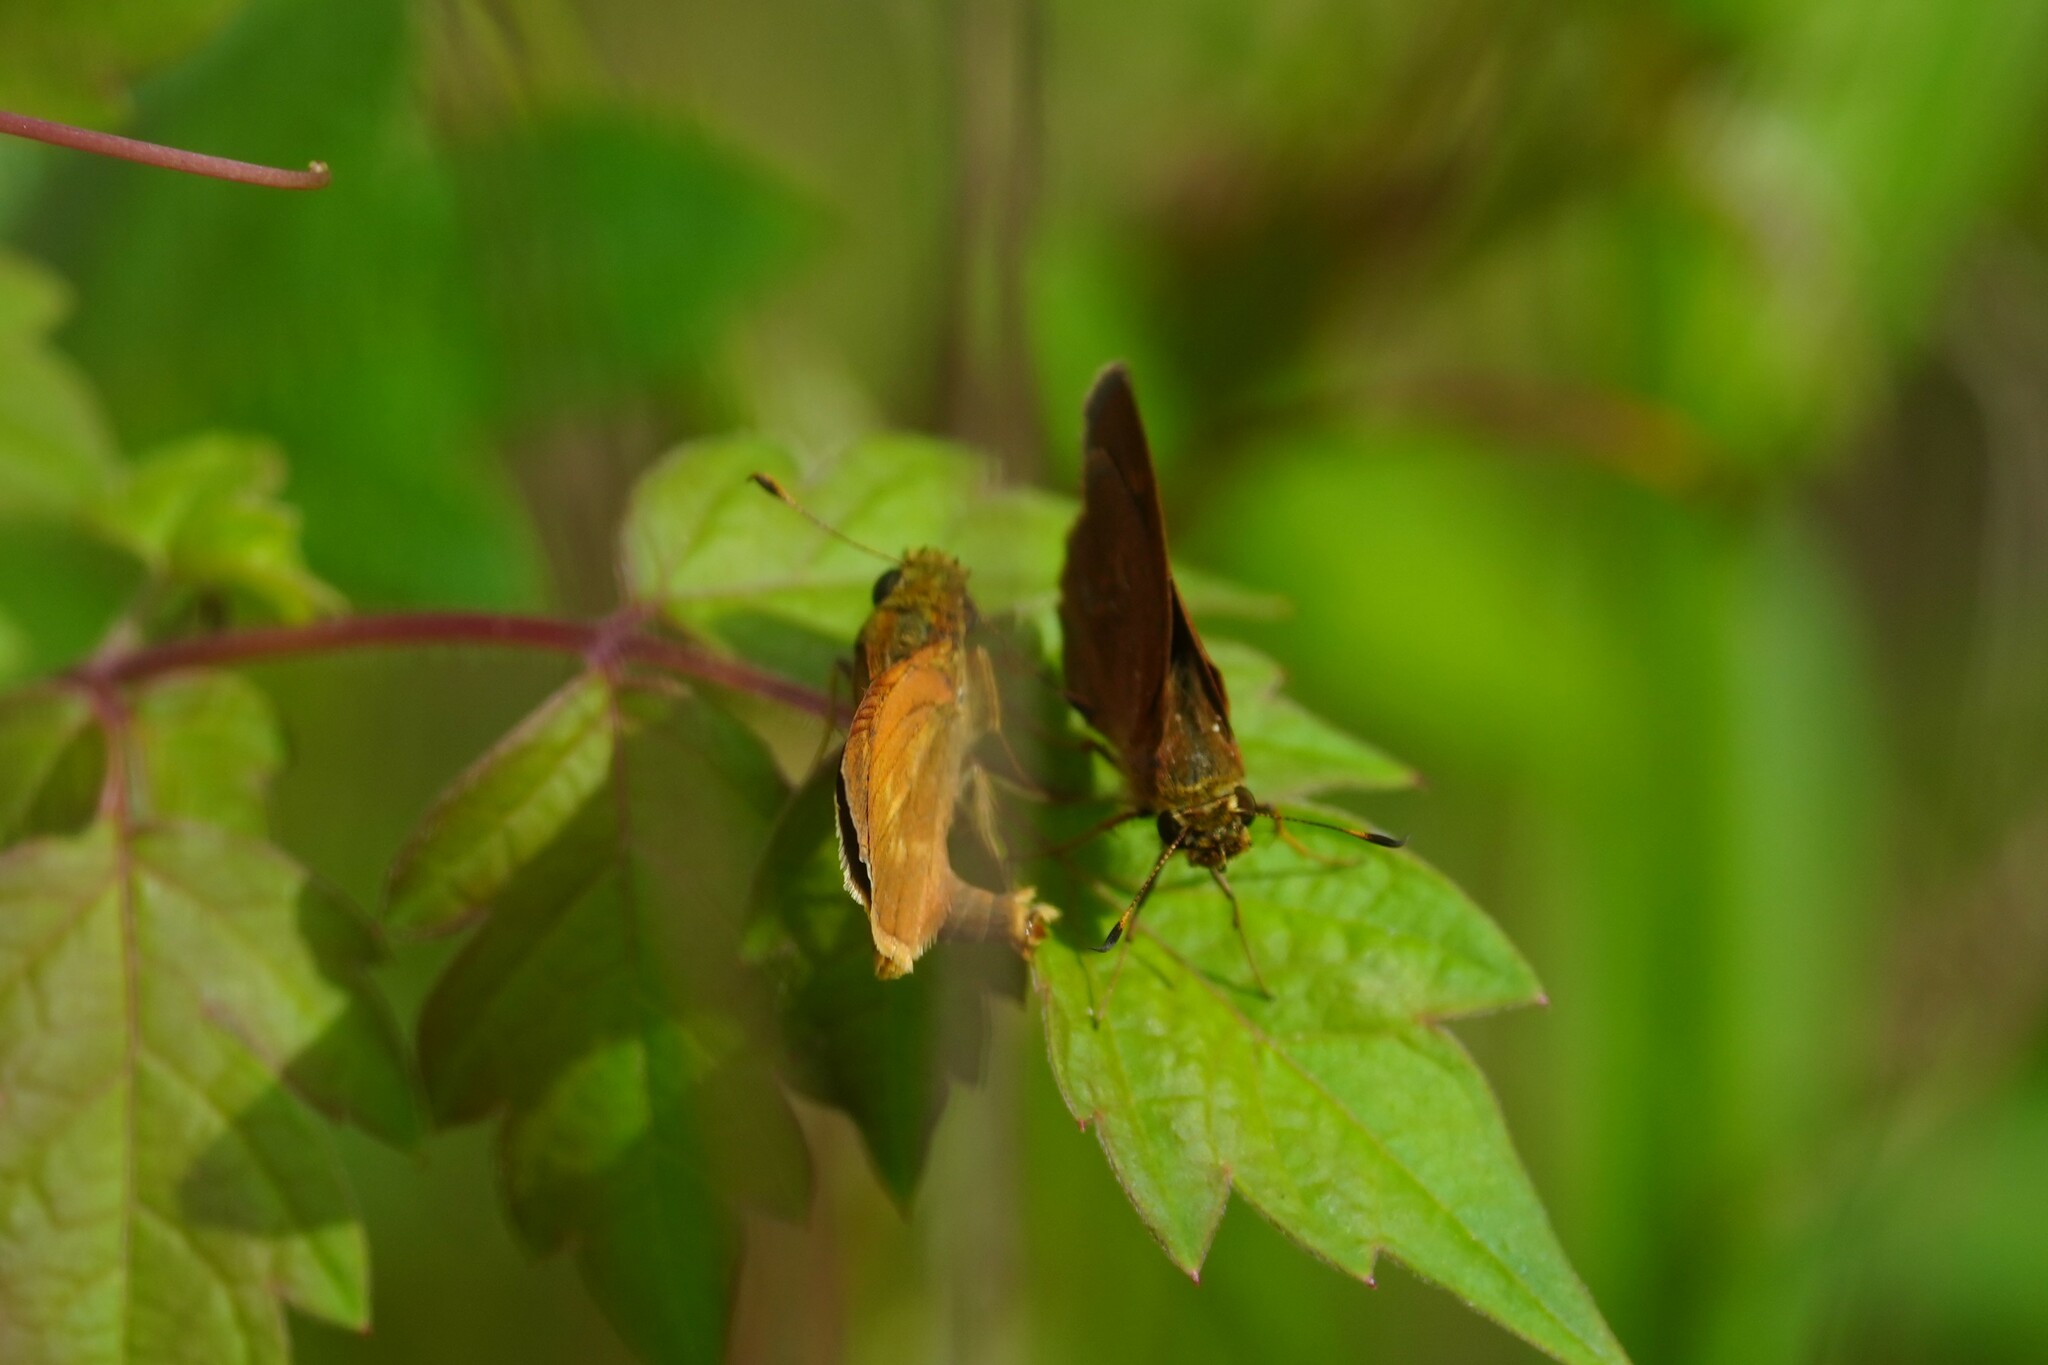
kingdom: Animalia
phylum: Arthropoda
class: Insecta
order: Lepidoptera
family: Hesperiidae
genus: Polites
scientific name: Polites otho
